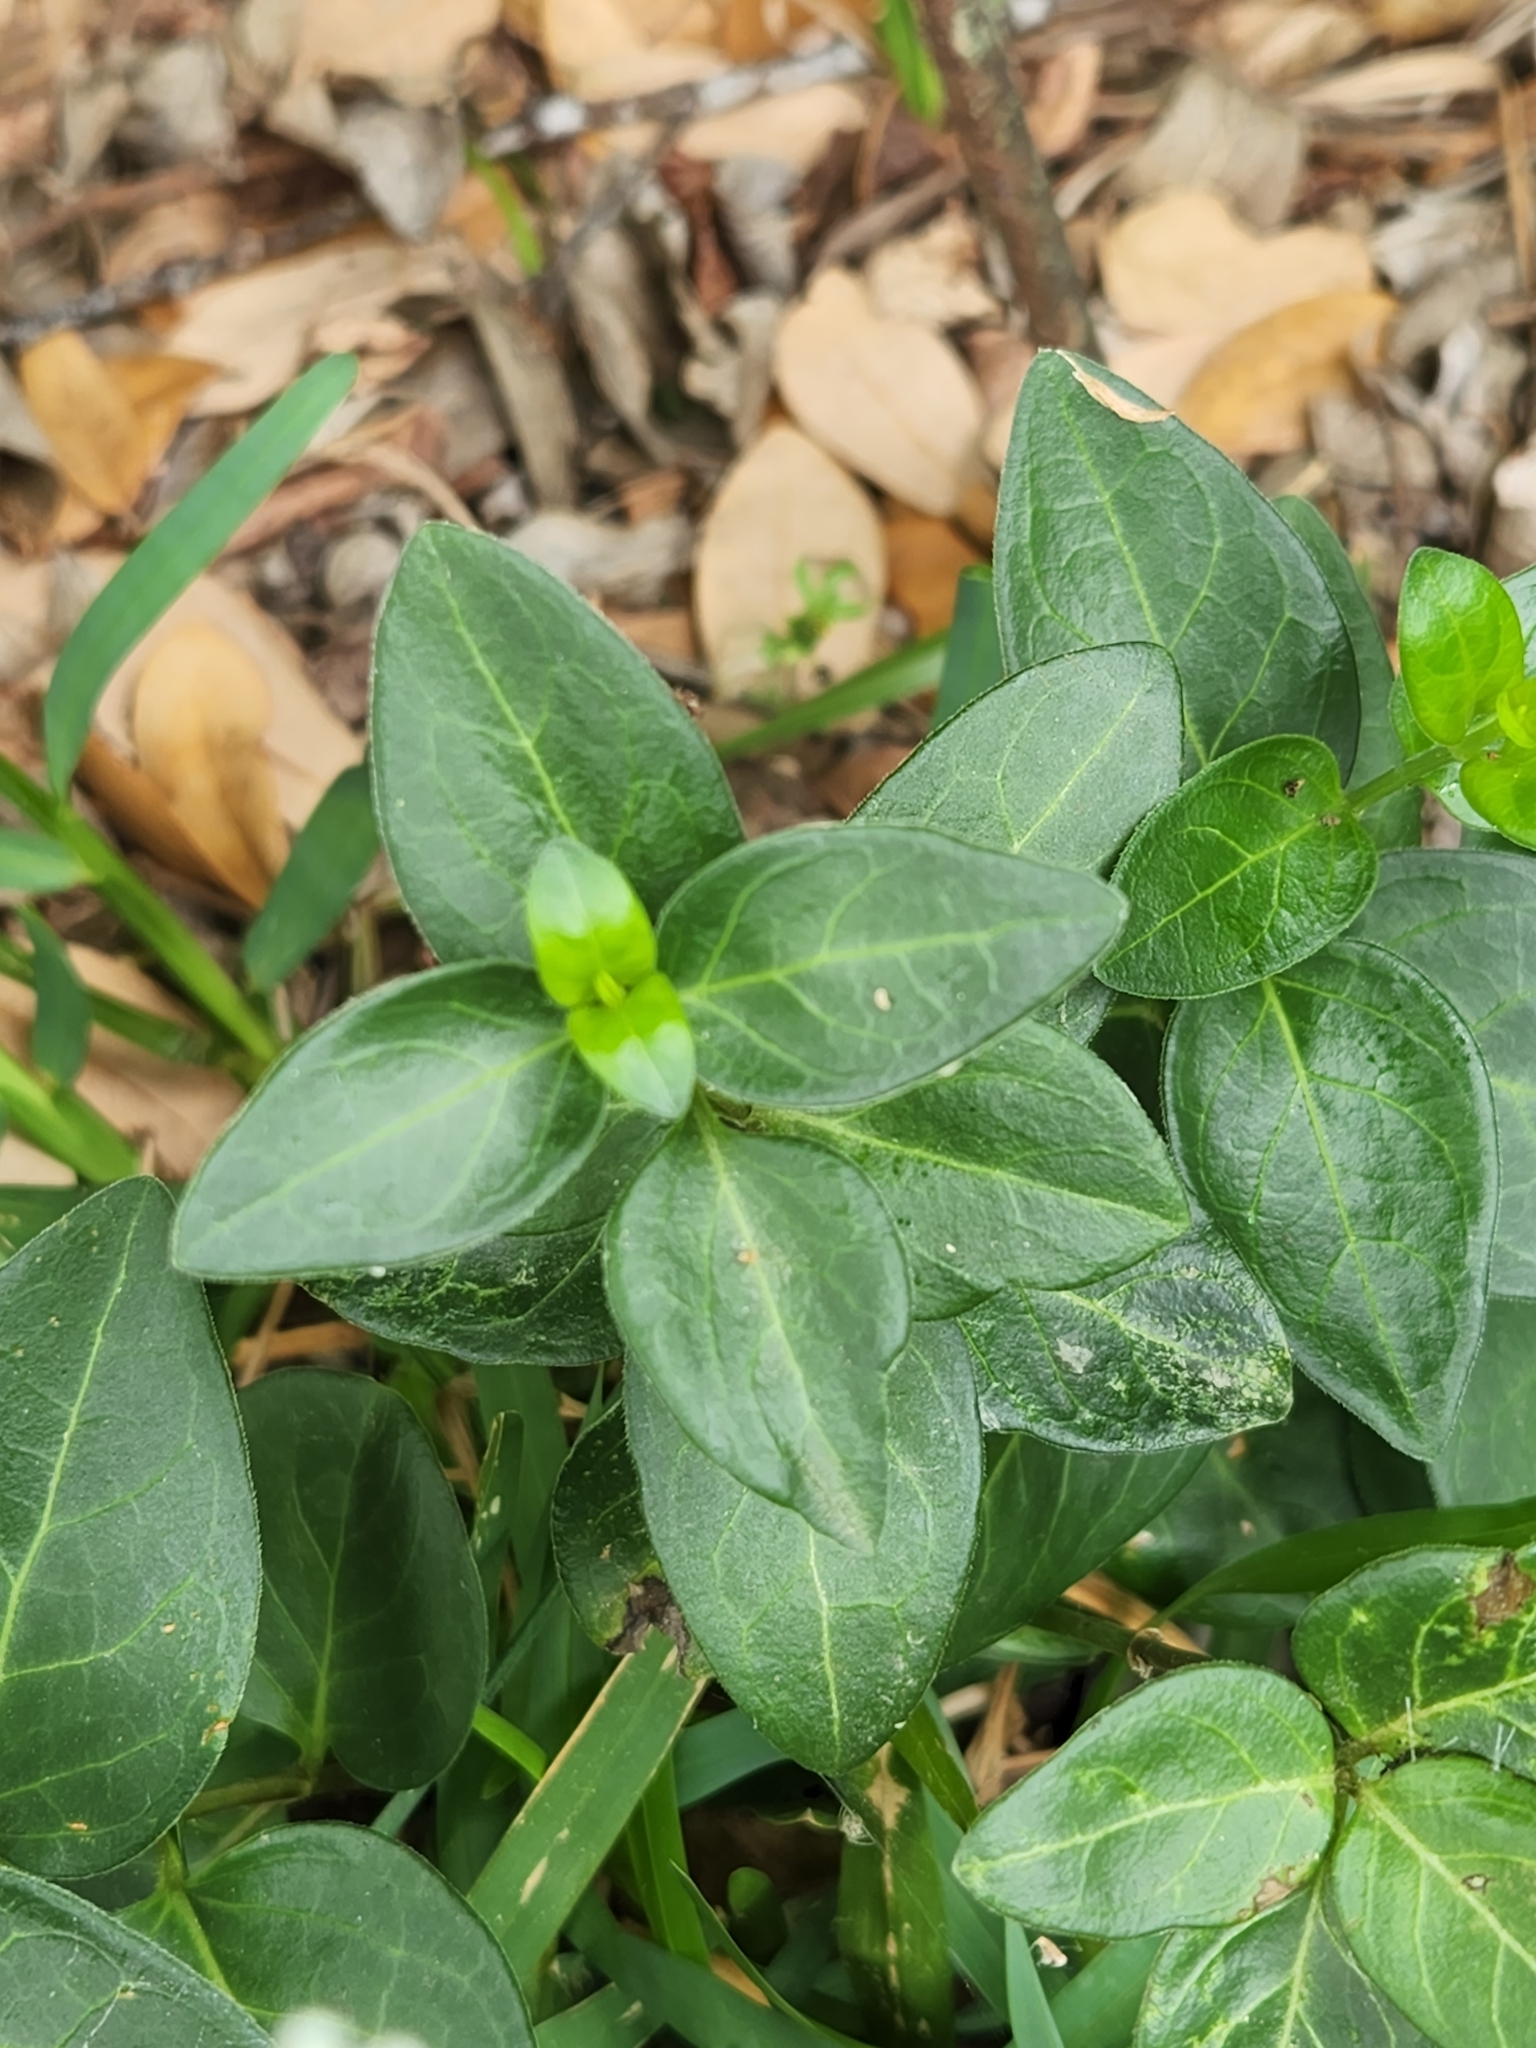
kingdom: Plantae
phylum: Tracheophyta
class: Magnoliopsida
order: Gentianales
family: Apocynaceae
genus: Vinca
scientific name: Vinca major
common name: Greater periwinkle
